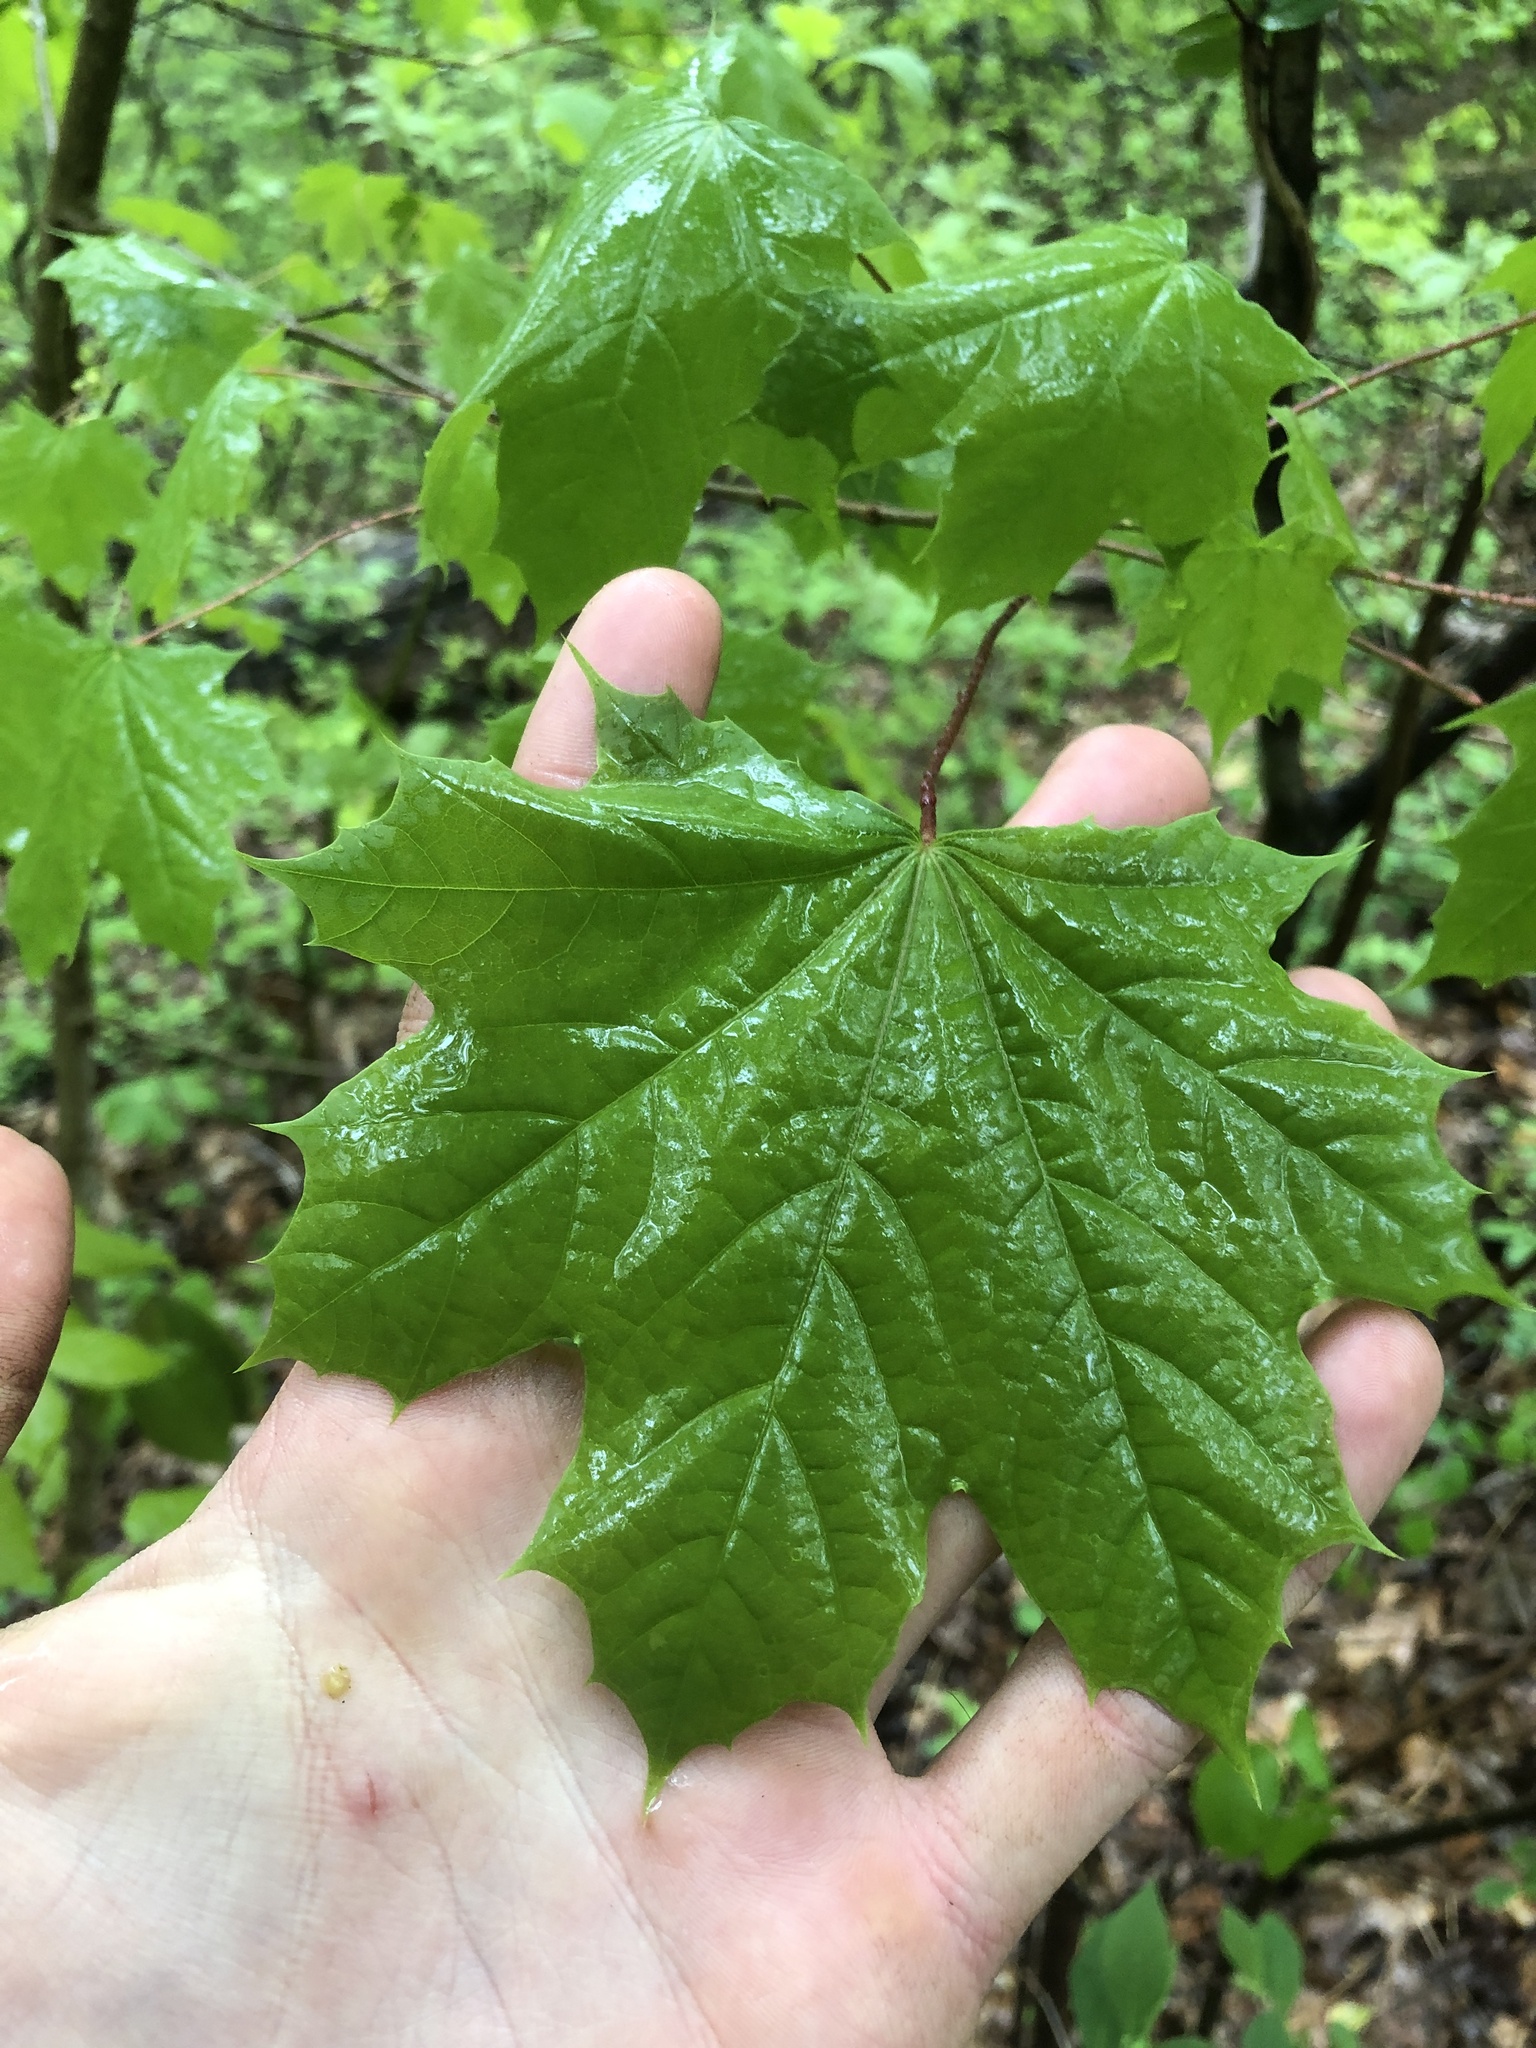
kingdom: Plantae
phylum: Tracheophyta
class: Magnoliopsida
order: Sapindales
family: Sapindaceae
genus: Acer
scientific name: Acer platanoides
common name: Norway maple
